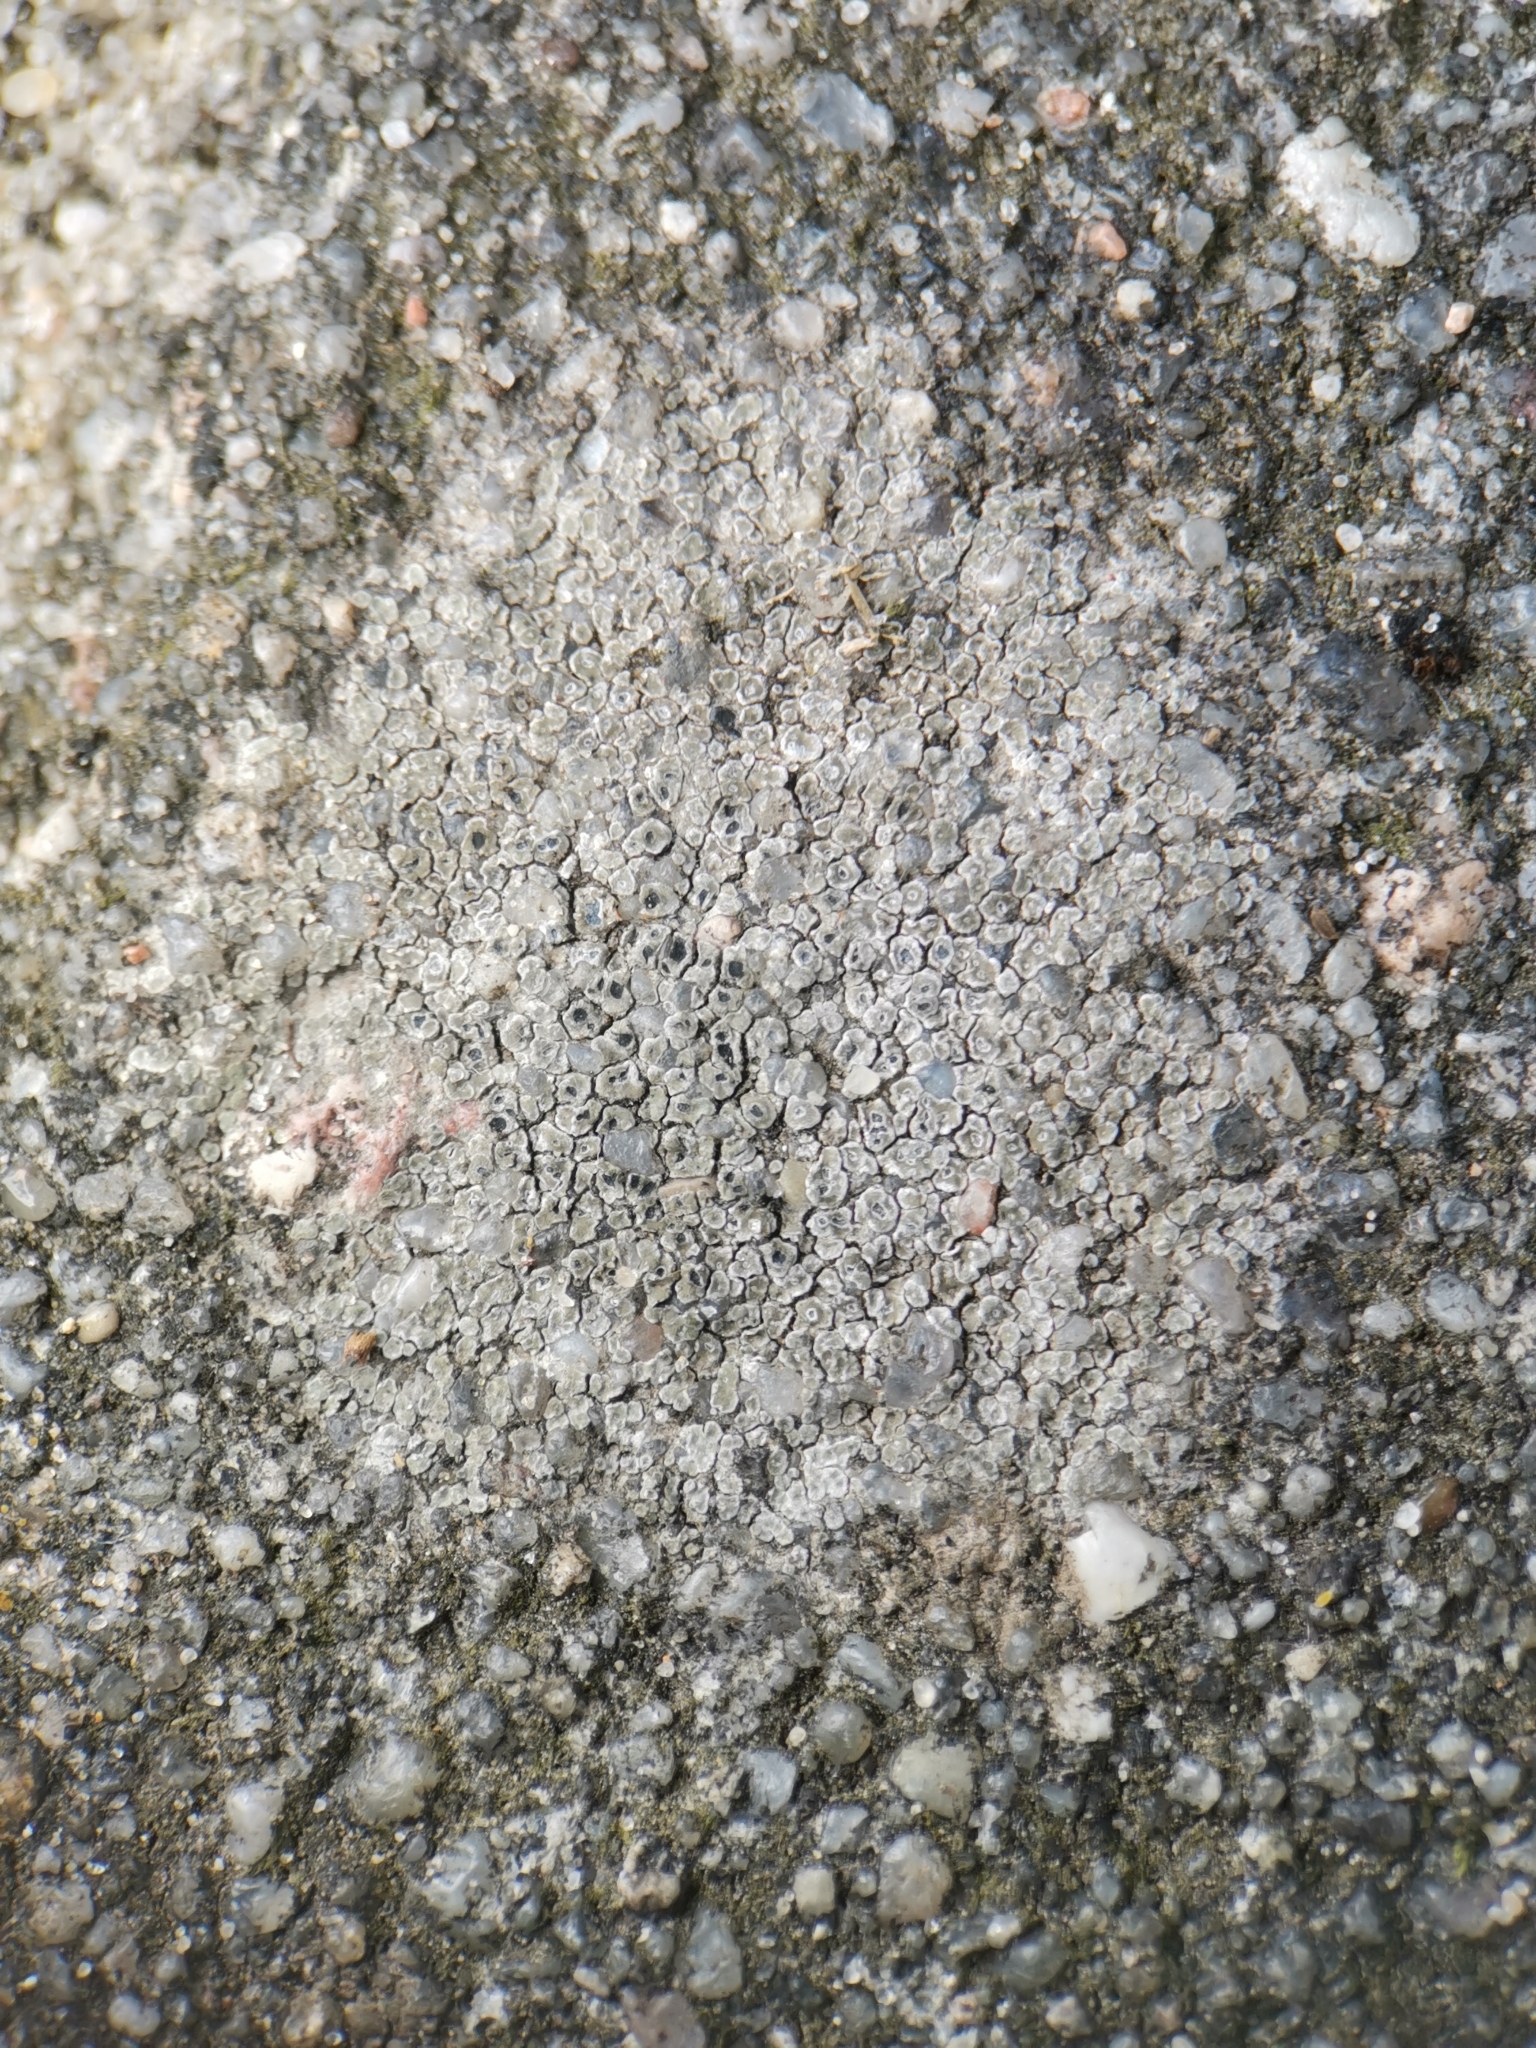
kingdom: Fungi
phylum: Ascomycota
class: Lecanoromycetes
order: Pertusariales
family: Megasporaceae
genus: Circinaria
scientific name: Circinaria contorta
